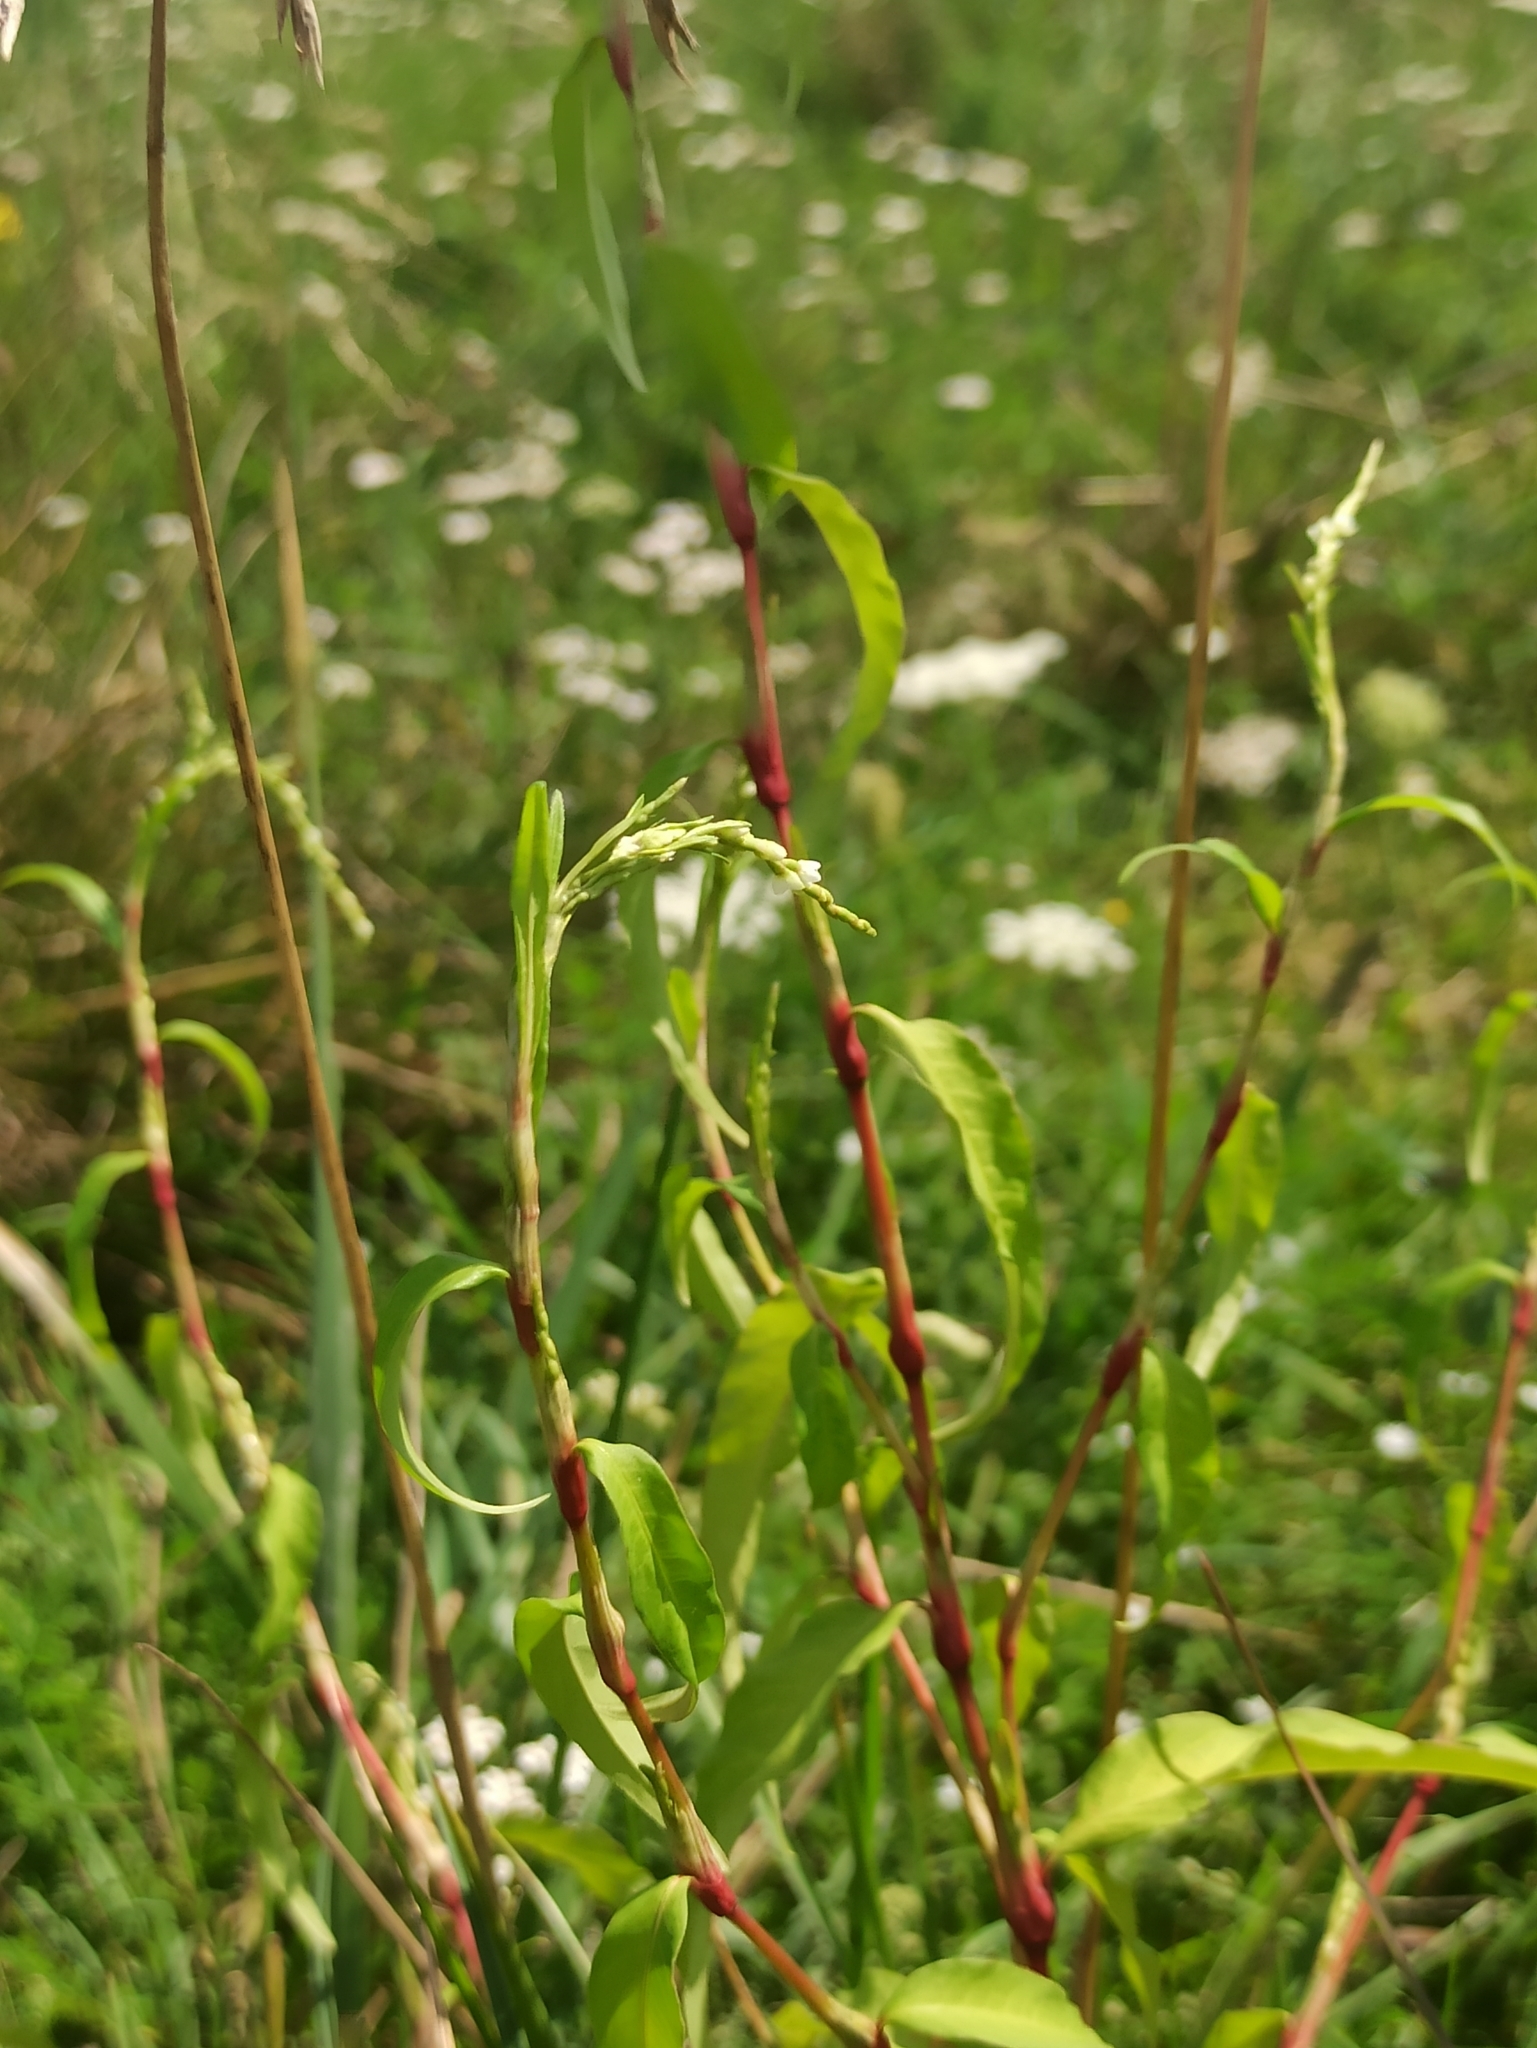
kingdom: Plantae
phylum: Tracheophyta
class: Magnoliopsida
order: Caryophyllales
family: Polygonaceae
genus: Persicaria
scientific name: Persicaria hydropiper
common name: Water-pepper
